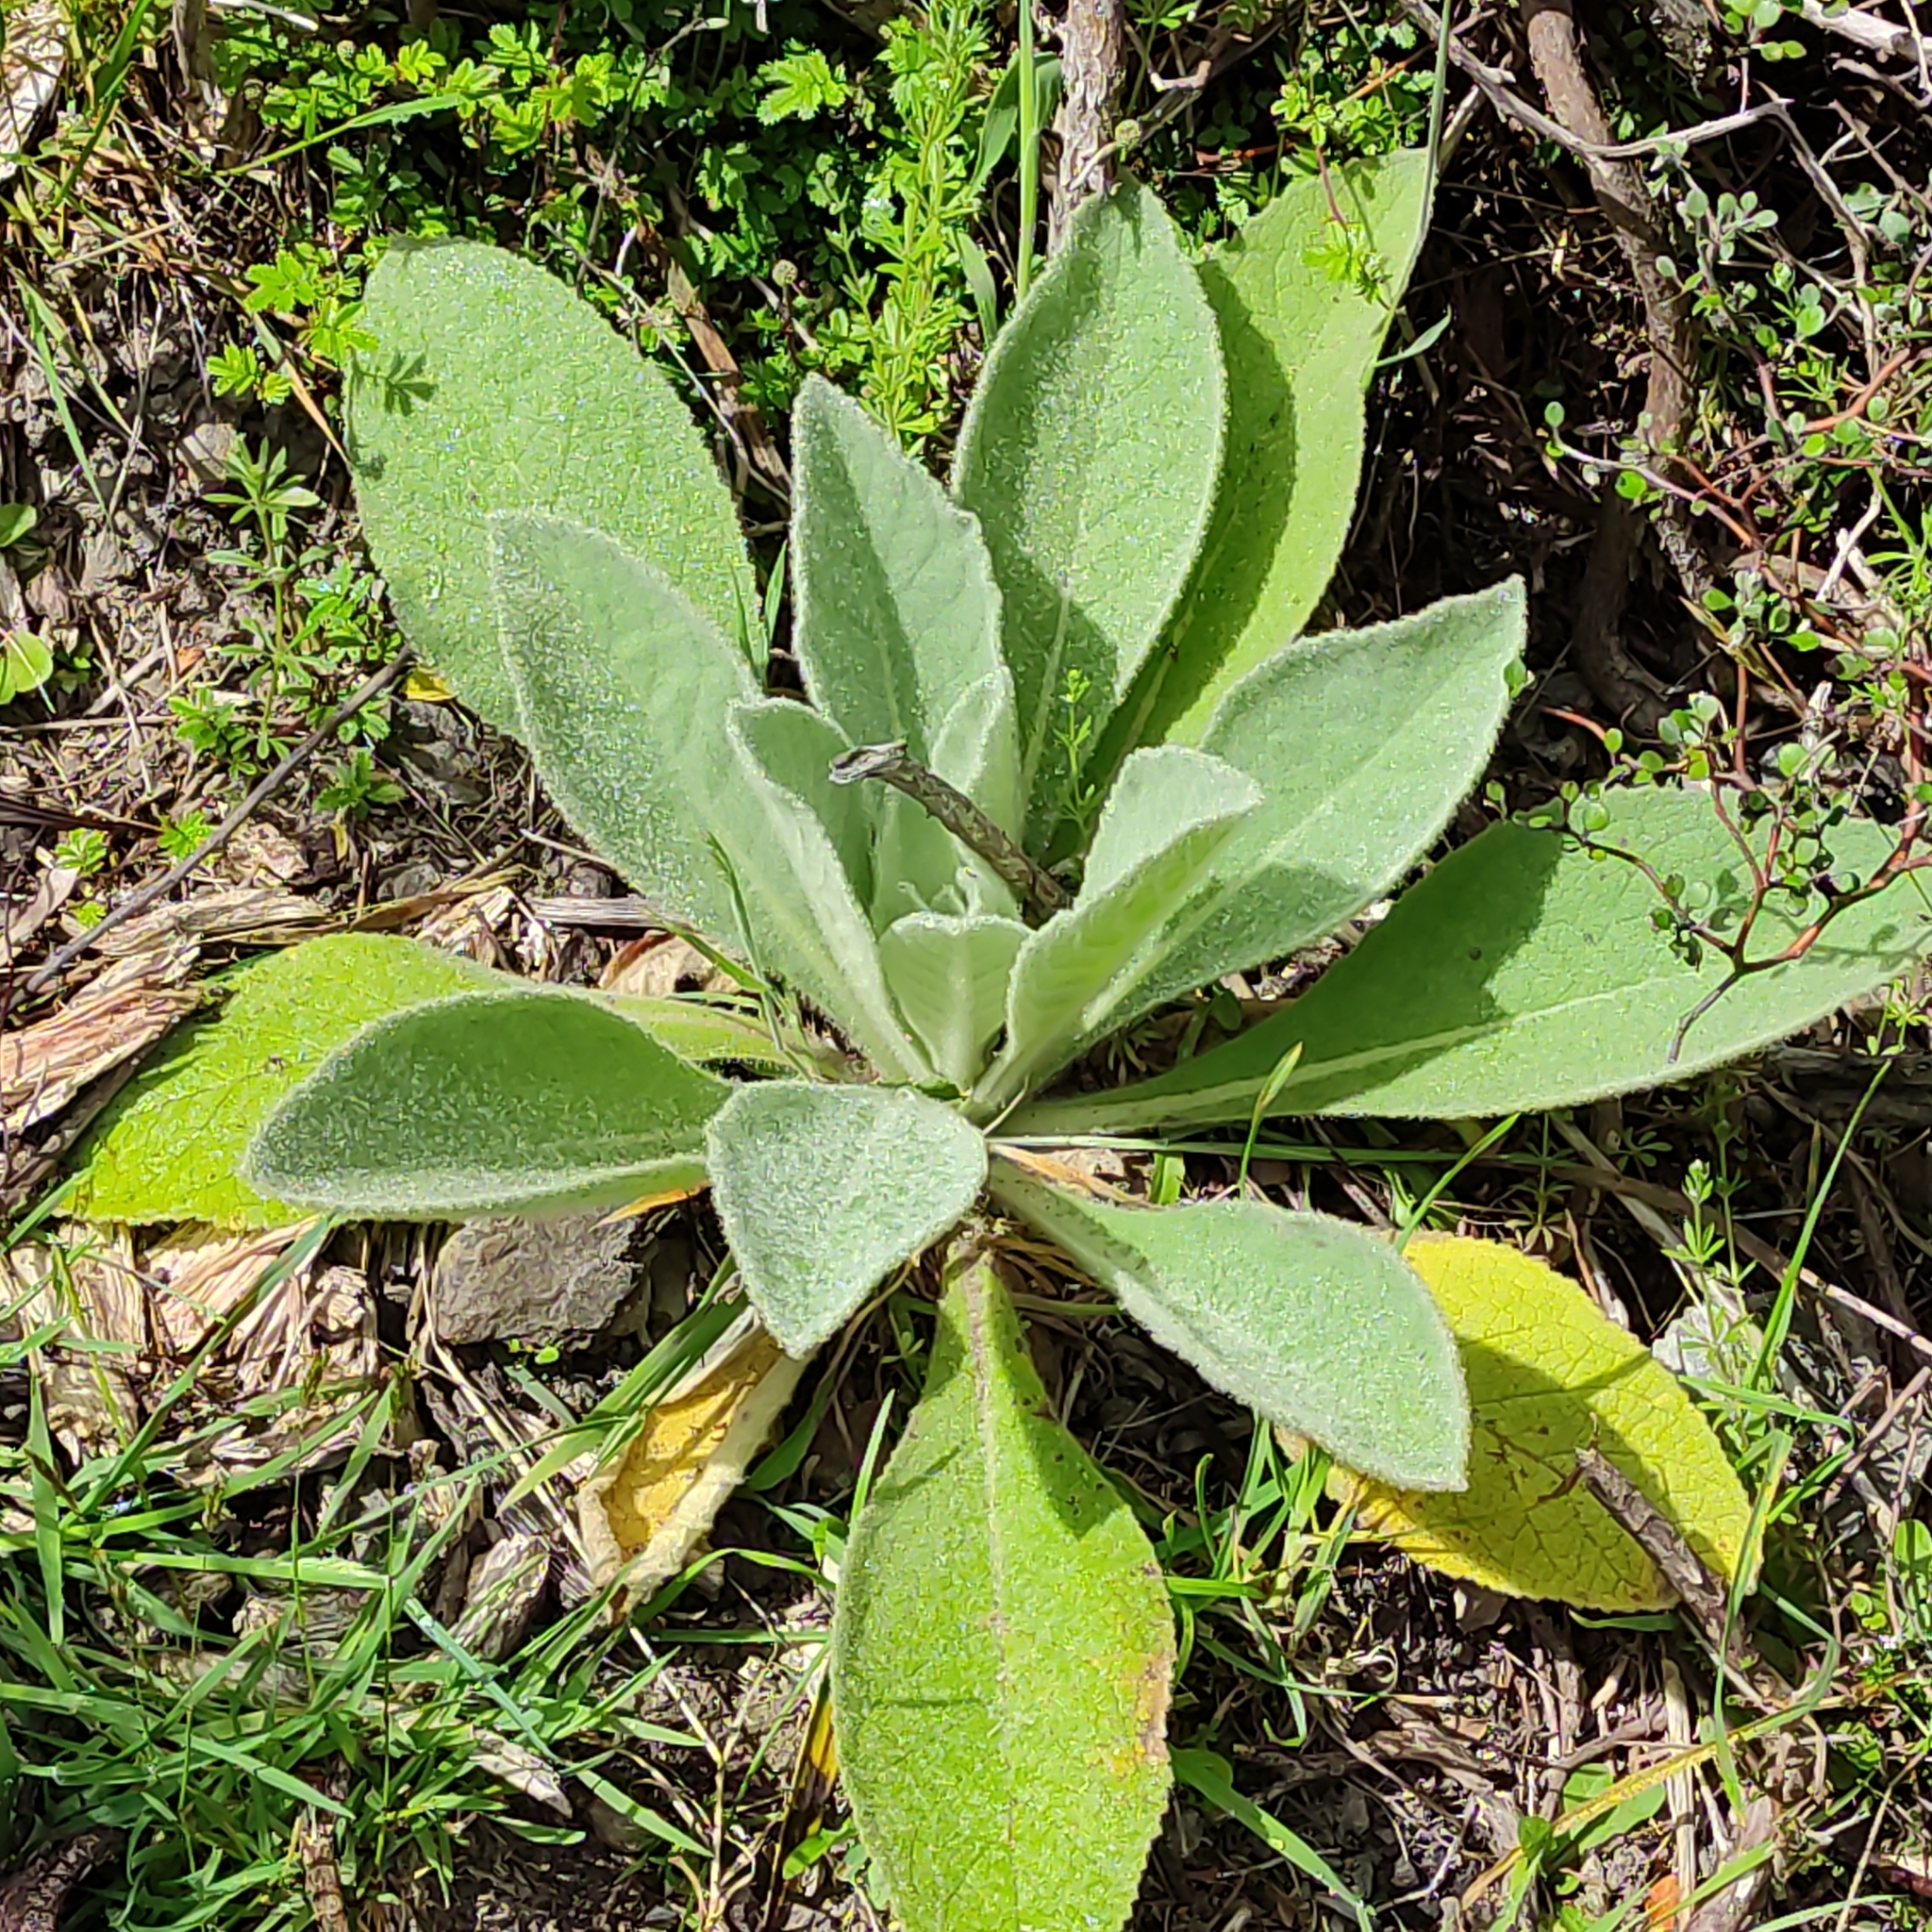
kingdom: Plantae
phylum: Tracheophyta
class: Magnoliopsida
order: Lamiales
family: Scrophulariaceae
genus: Verbascum
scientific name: Verbascum thapsus
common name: Common mullein
